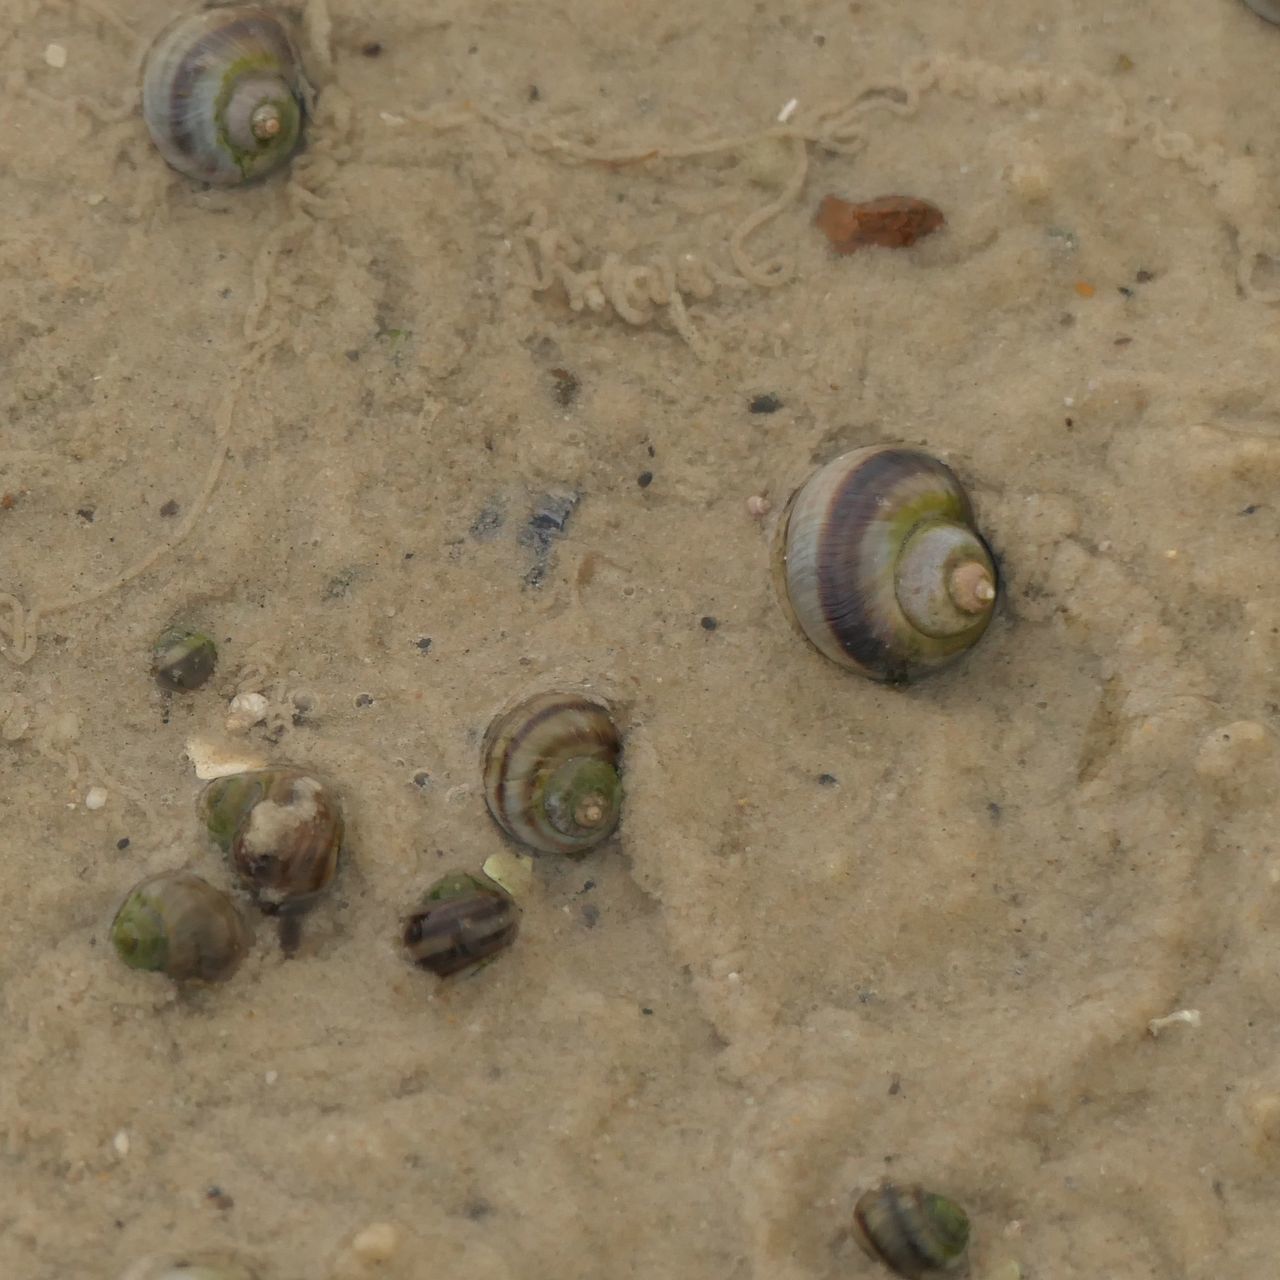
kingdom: Animalia
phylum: Mollusca
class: Gastropoda
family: Amphibolidae
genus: Salinator
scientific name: Salinator fragilis
